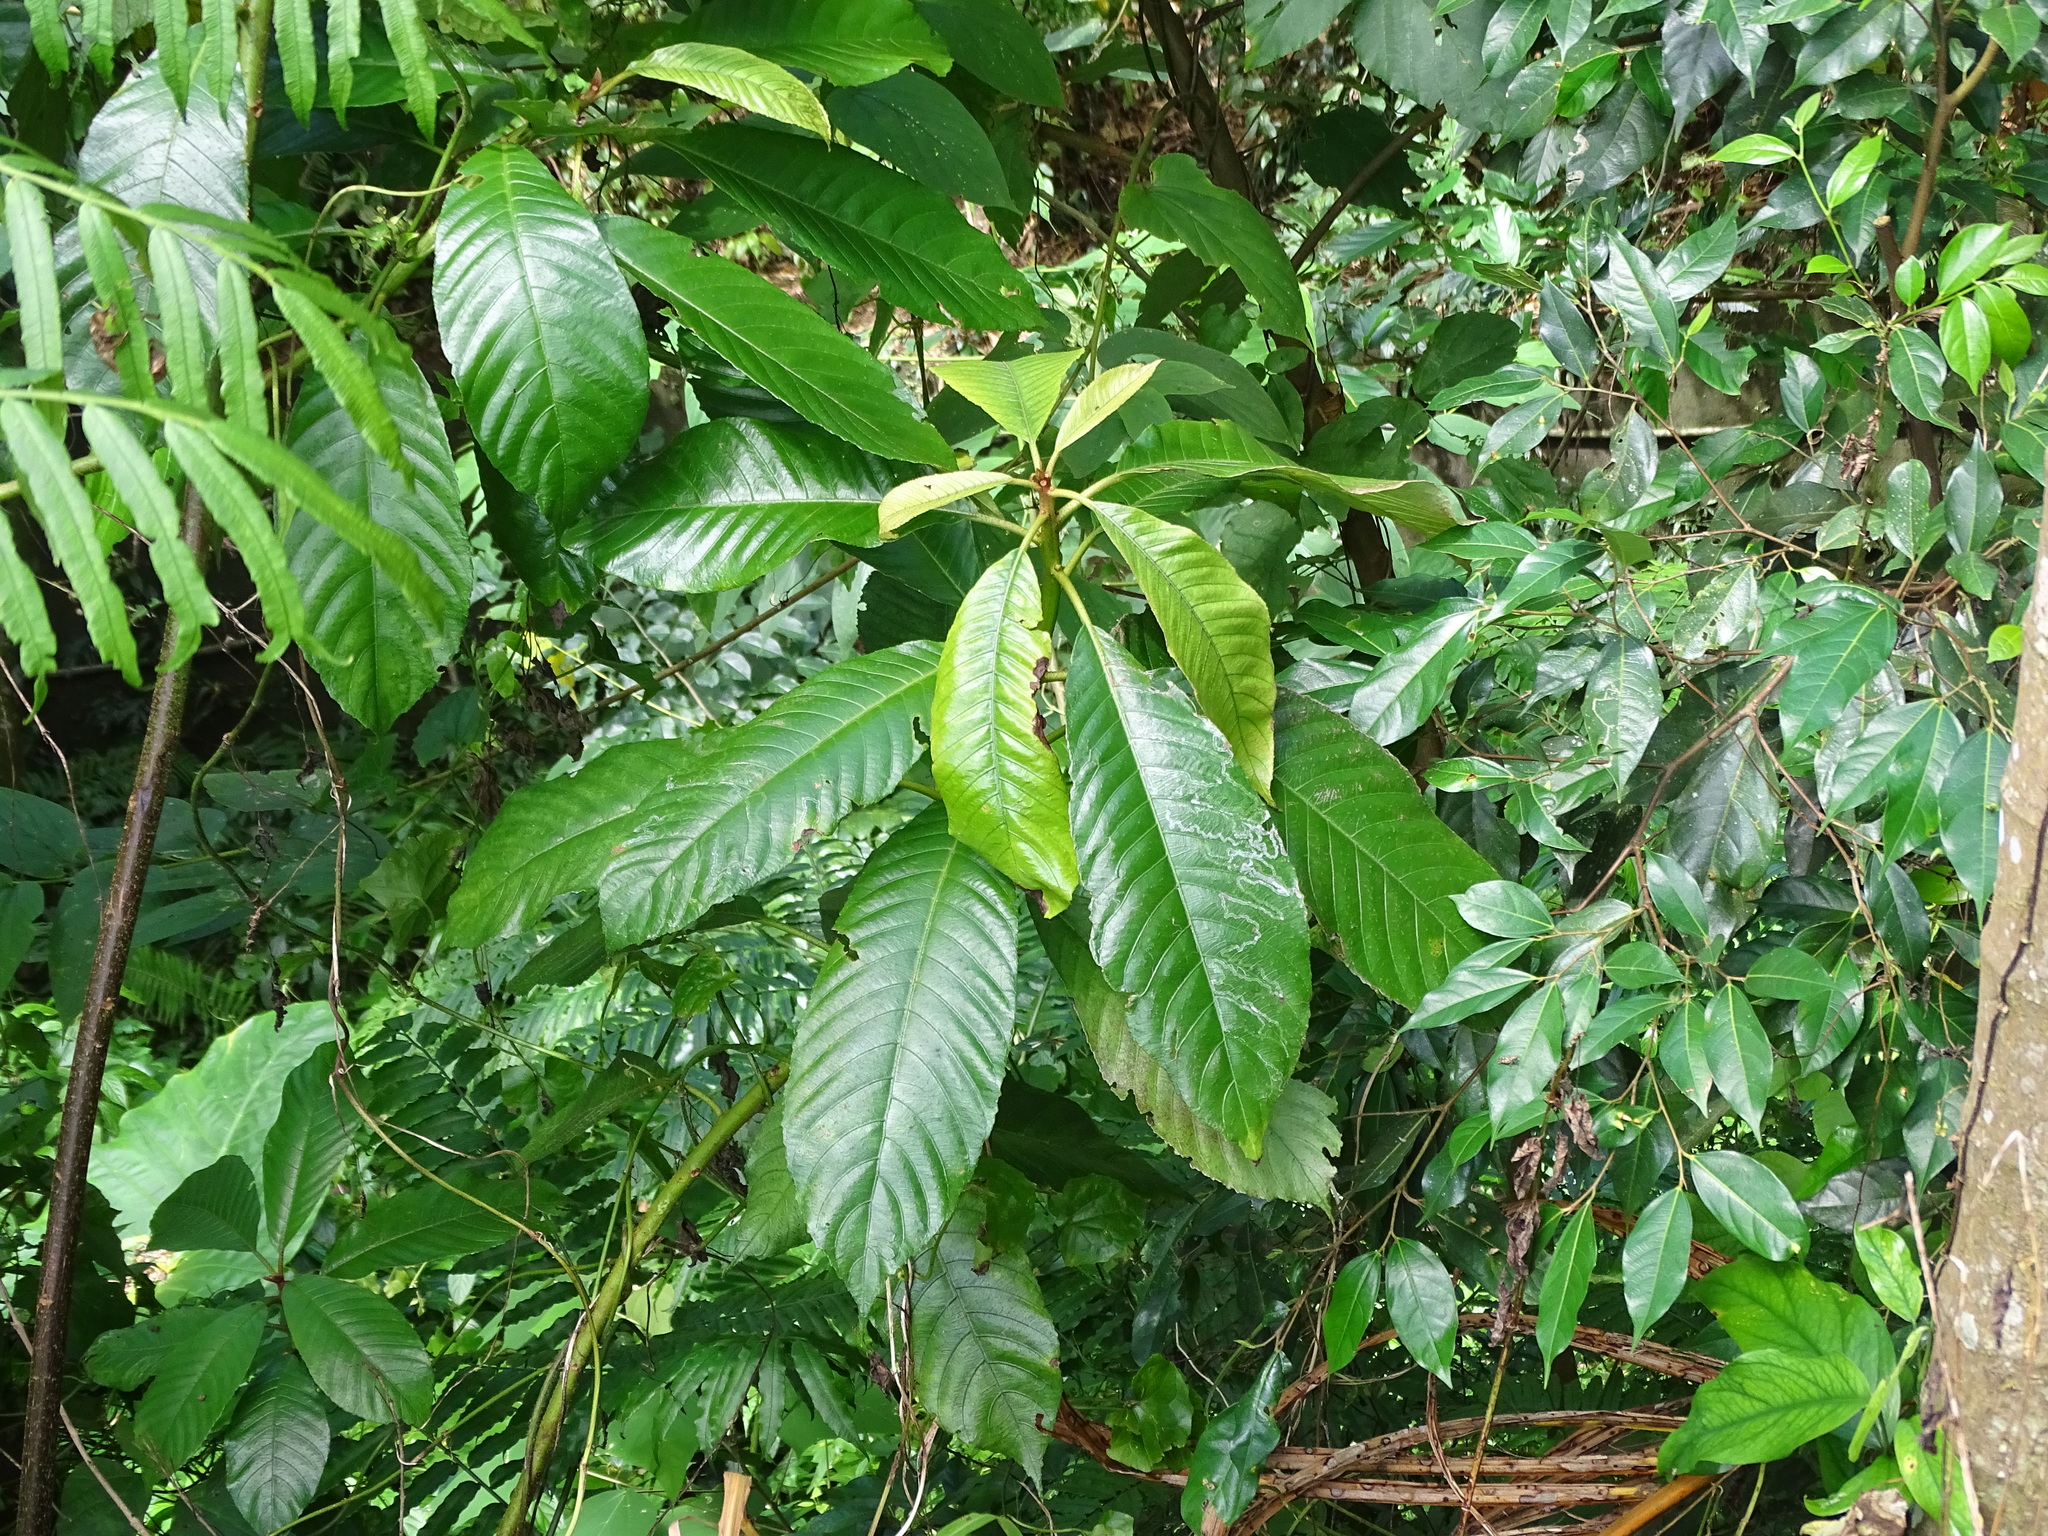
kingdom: Plantae
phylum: Tracheophyta
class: Magnoliopsida
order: Ericales
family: Actinidiaceae
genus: Saurauia
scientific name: Saurauia tristyla
